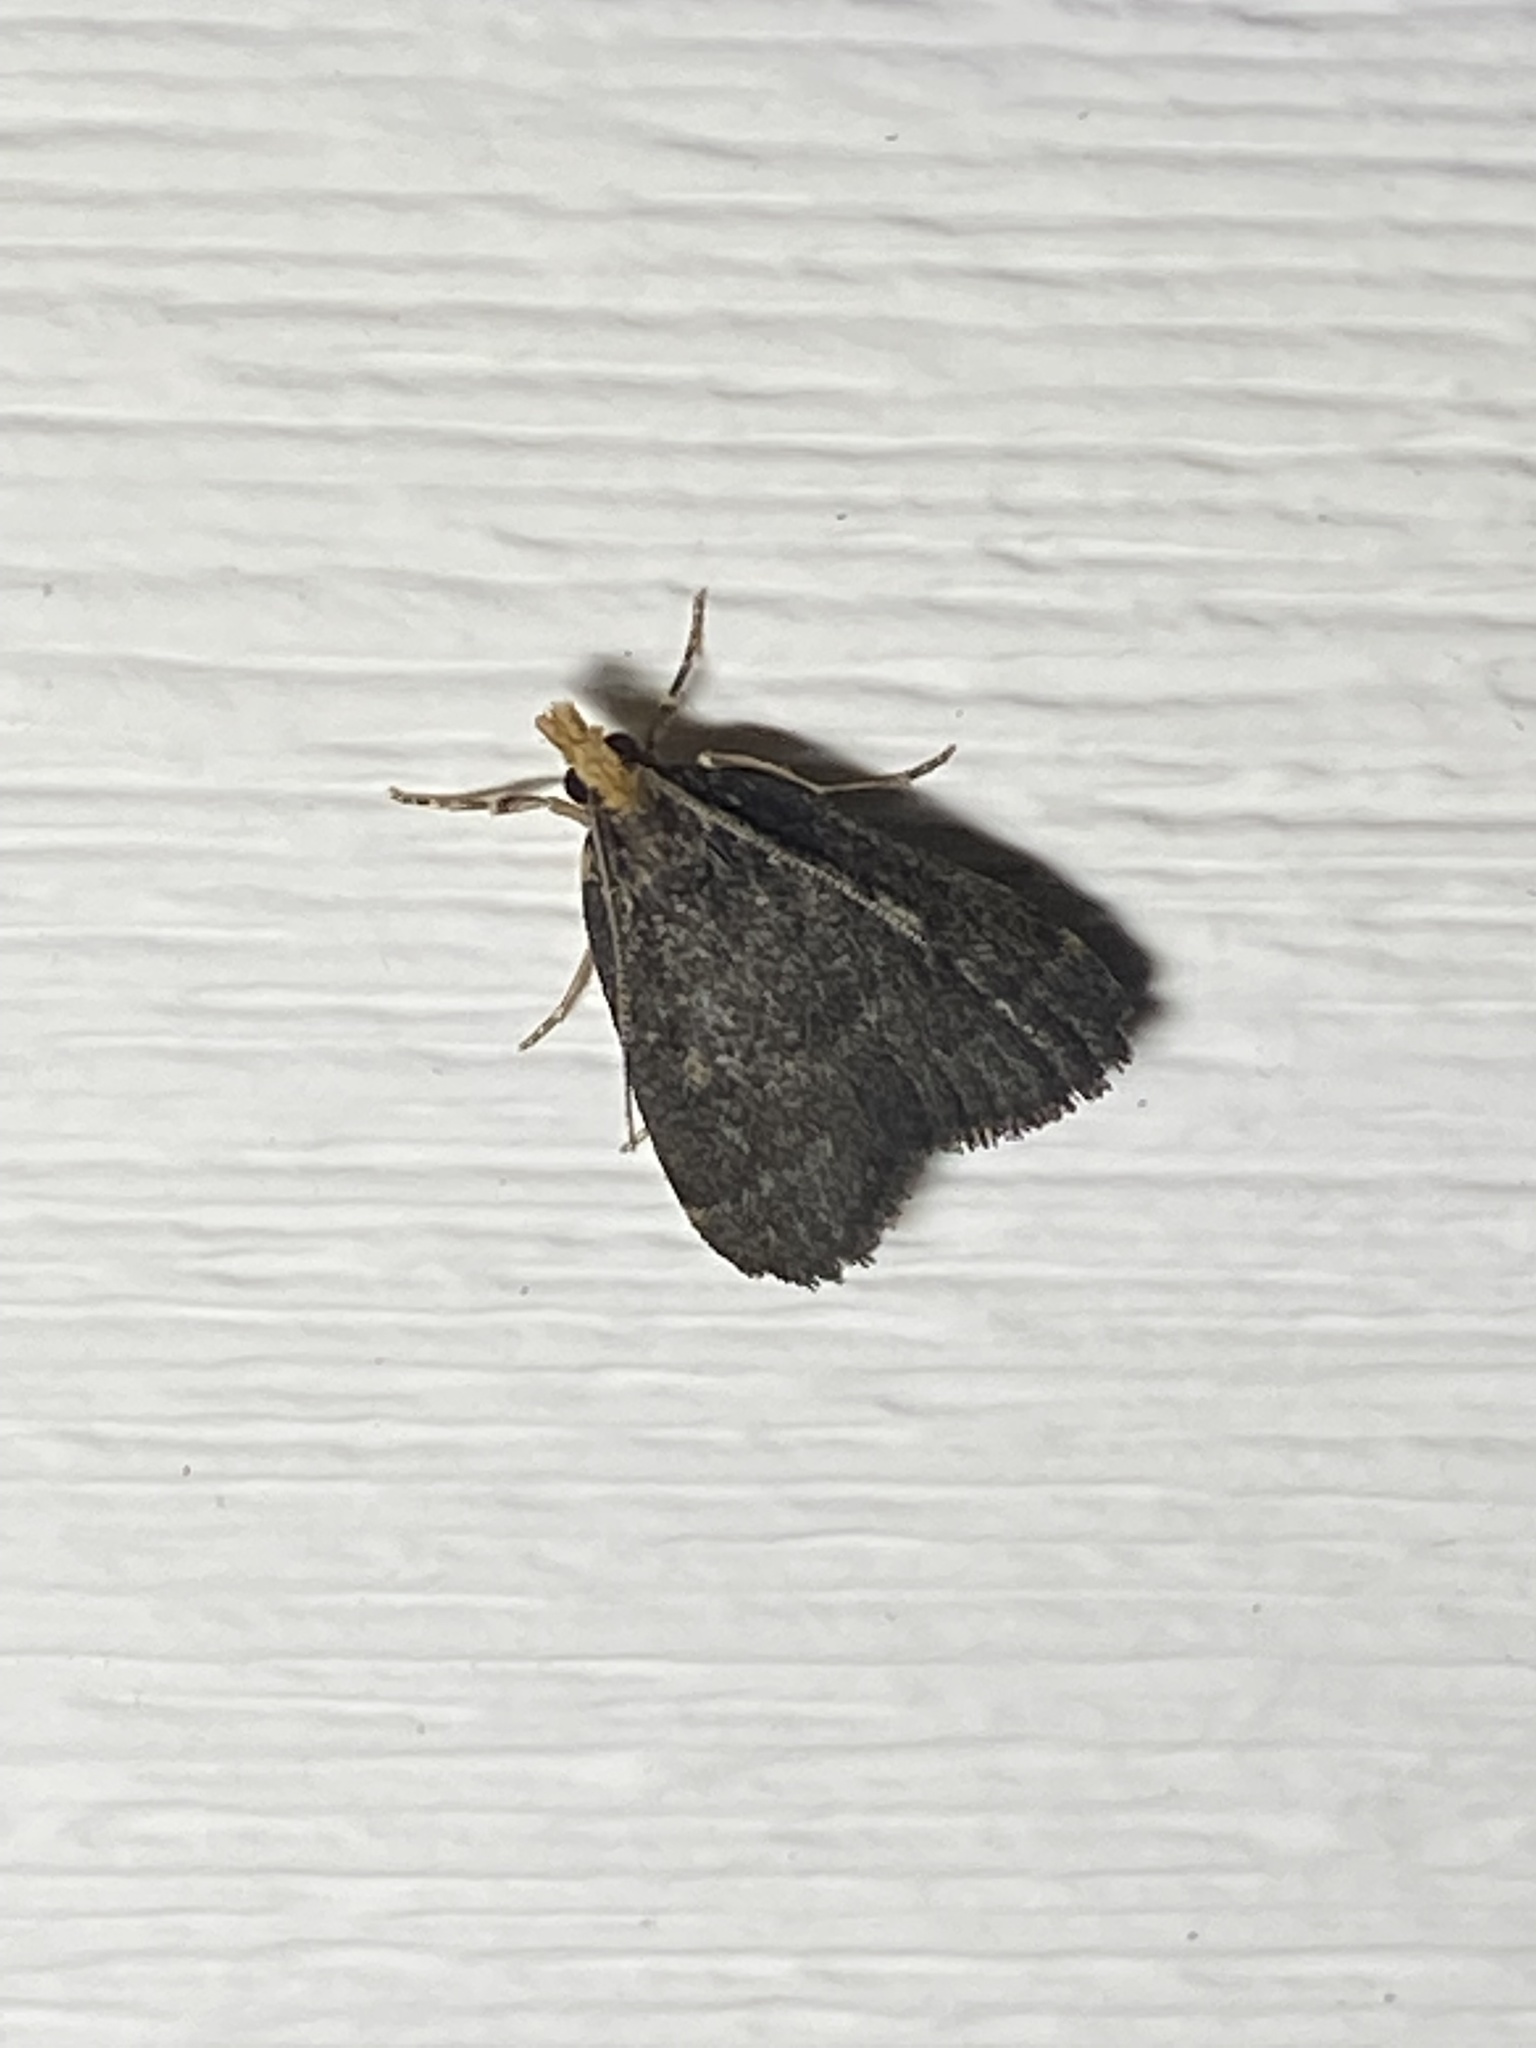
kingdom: Animalia
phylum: Arthropoda
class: Insecta
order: Lepidoptera
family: Crambidae
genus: Pyrausta
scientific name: Pyrausta merrickalis
